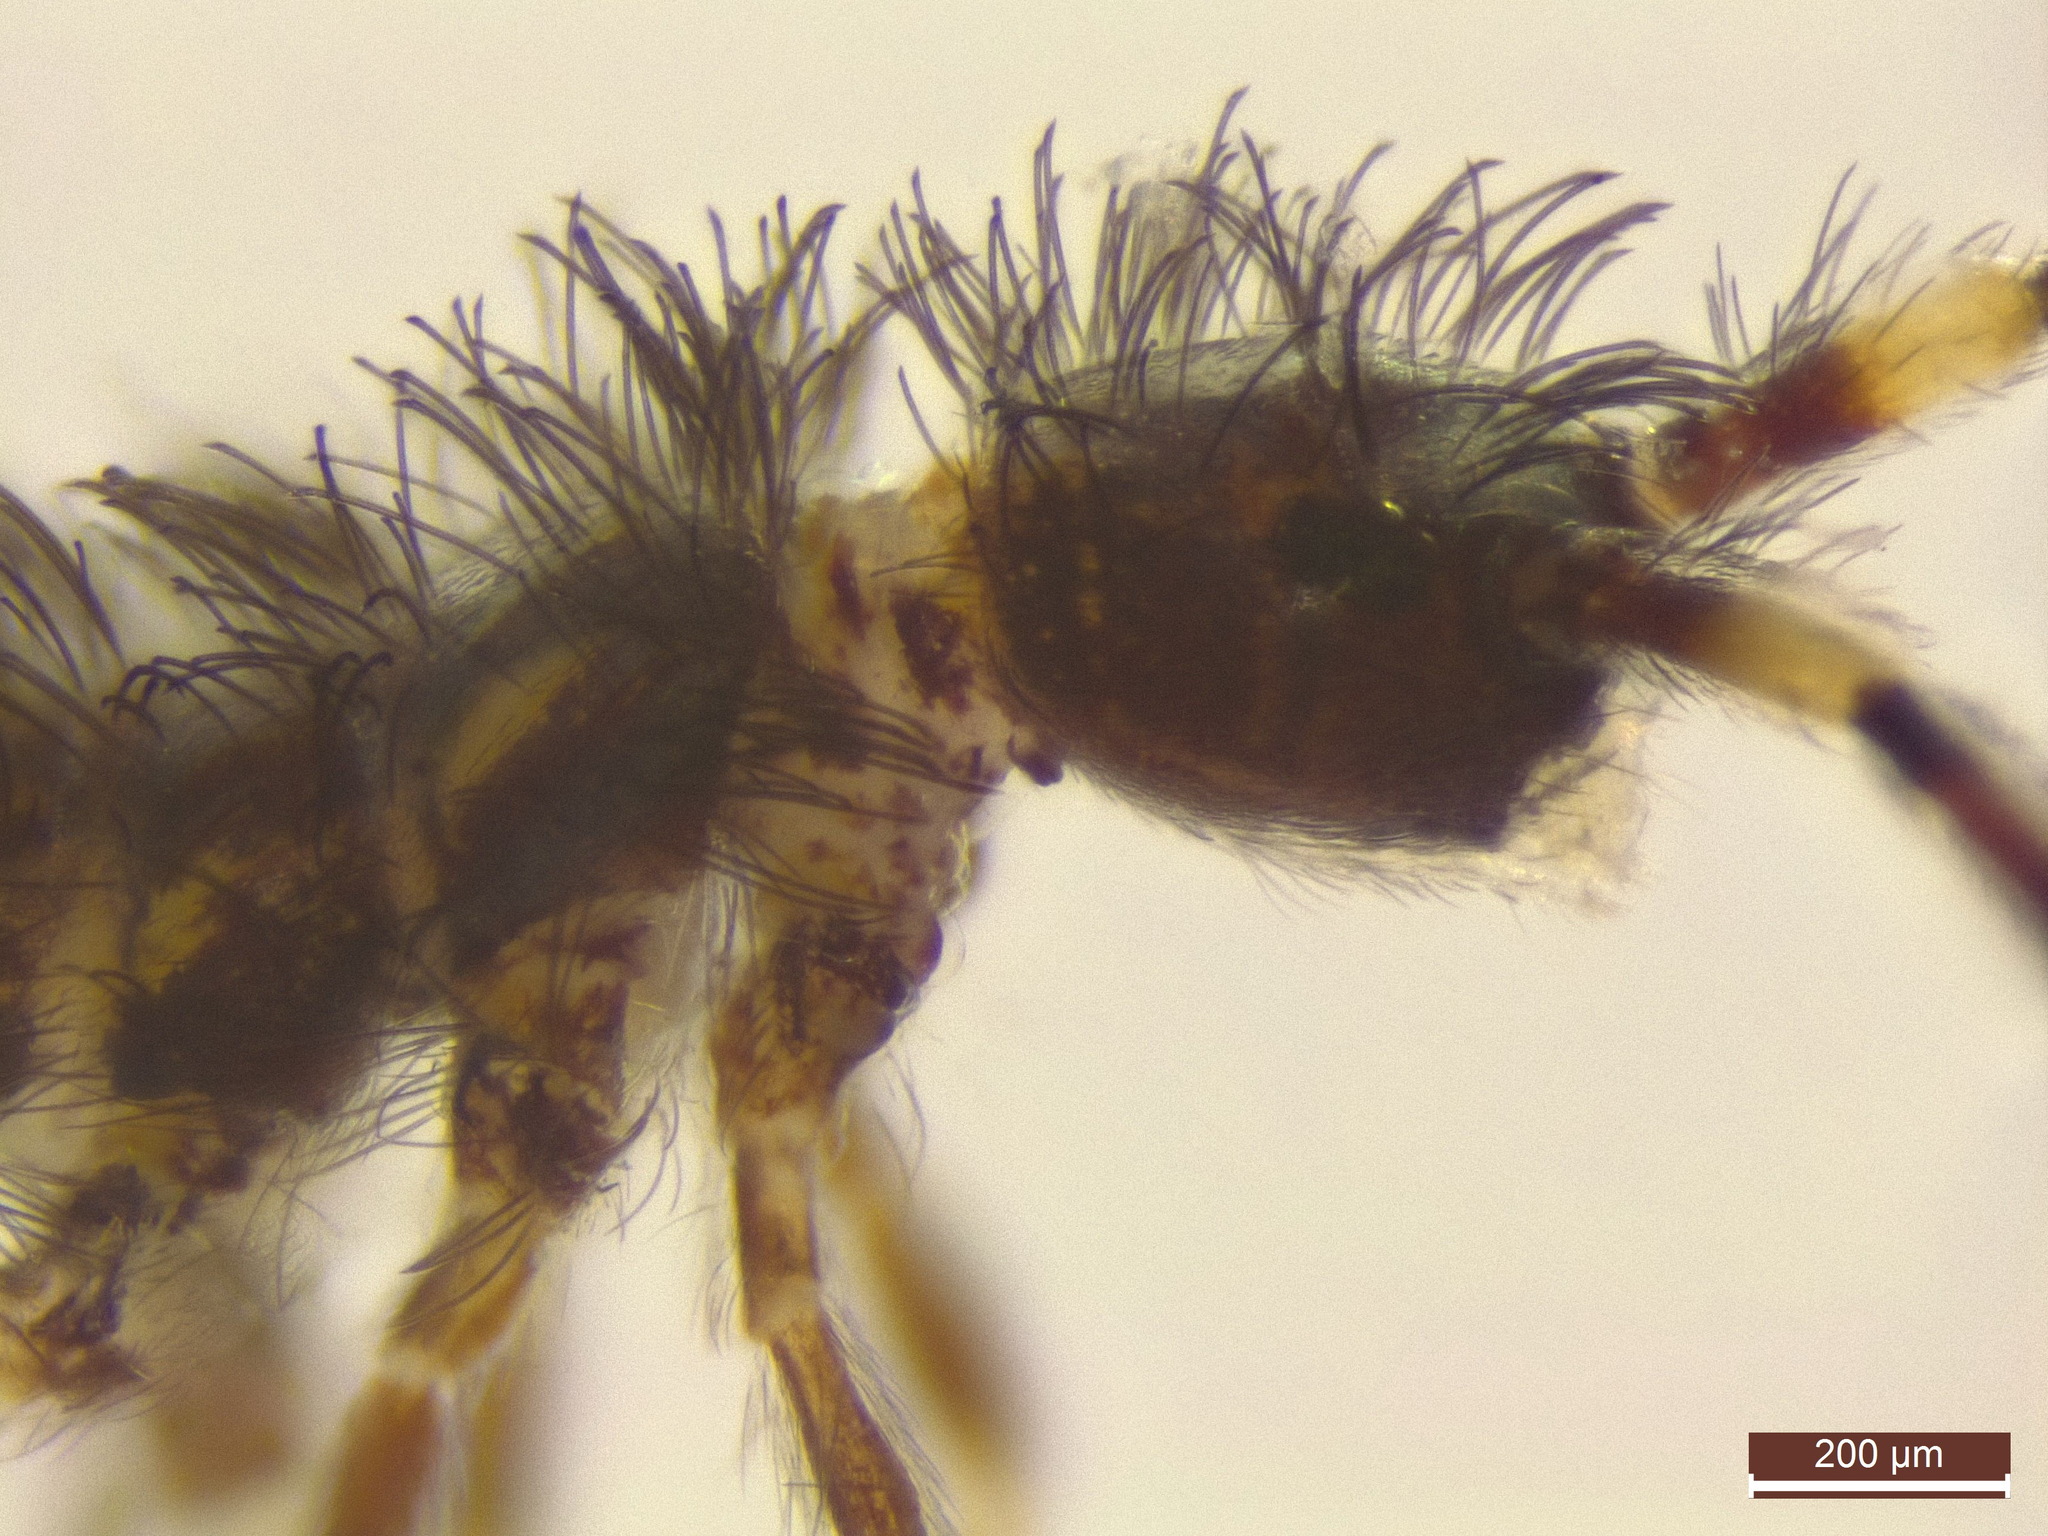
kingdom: Animalia
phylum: Arthropoda
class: Collembola
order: Entomobryomorpha
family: Orchesellidae
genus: Orchesella
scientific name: Orchesella cincta
